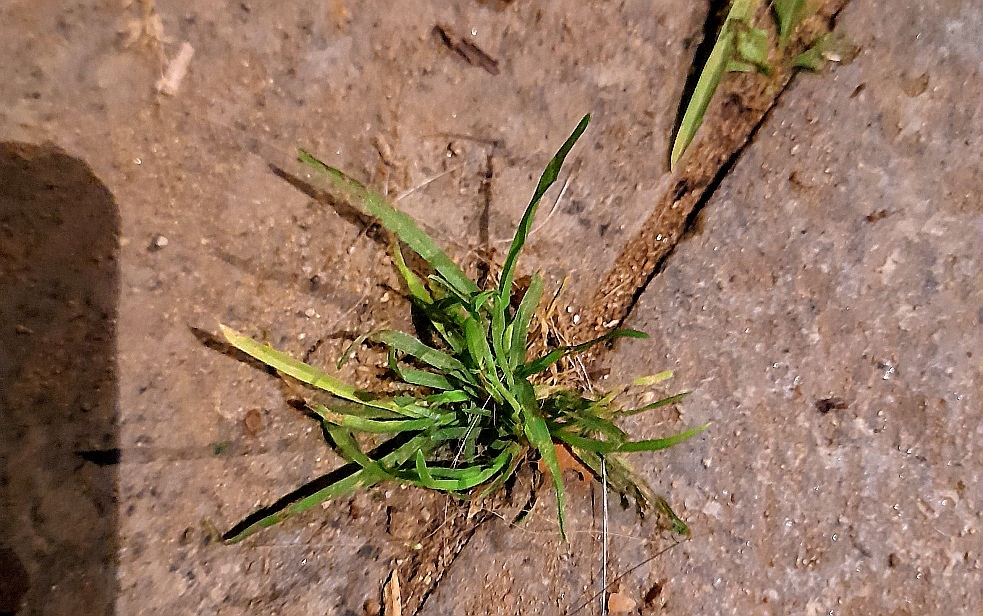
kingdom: Plantae
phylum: Tracheophyta
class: Liliopsida
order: Poales
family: Poaceae
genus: Poa
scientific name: Poa annua
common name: Annual bluegrass
